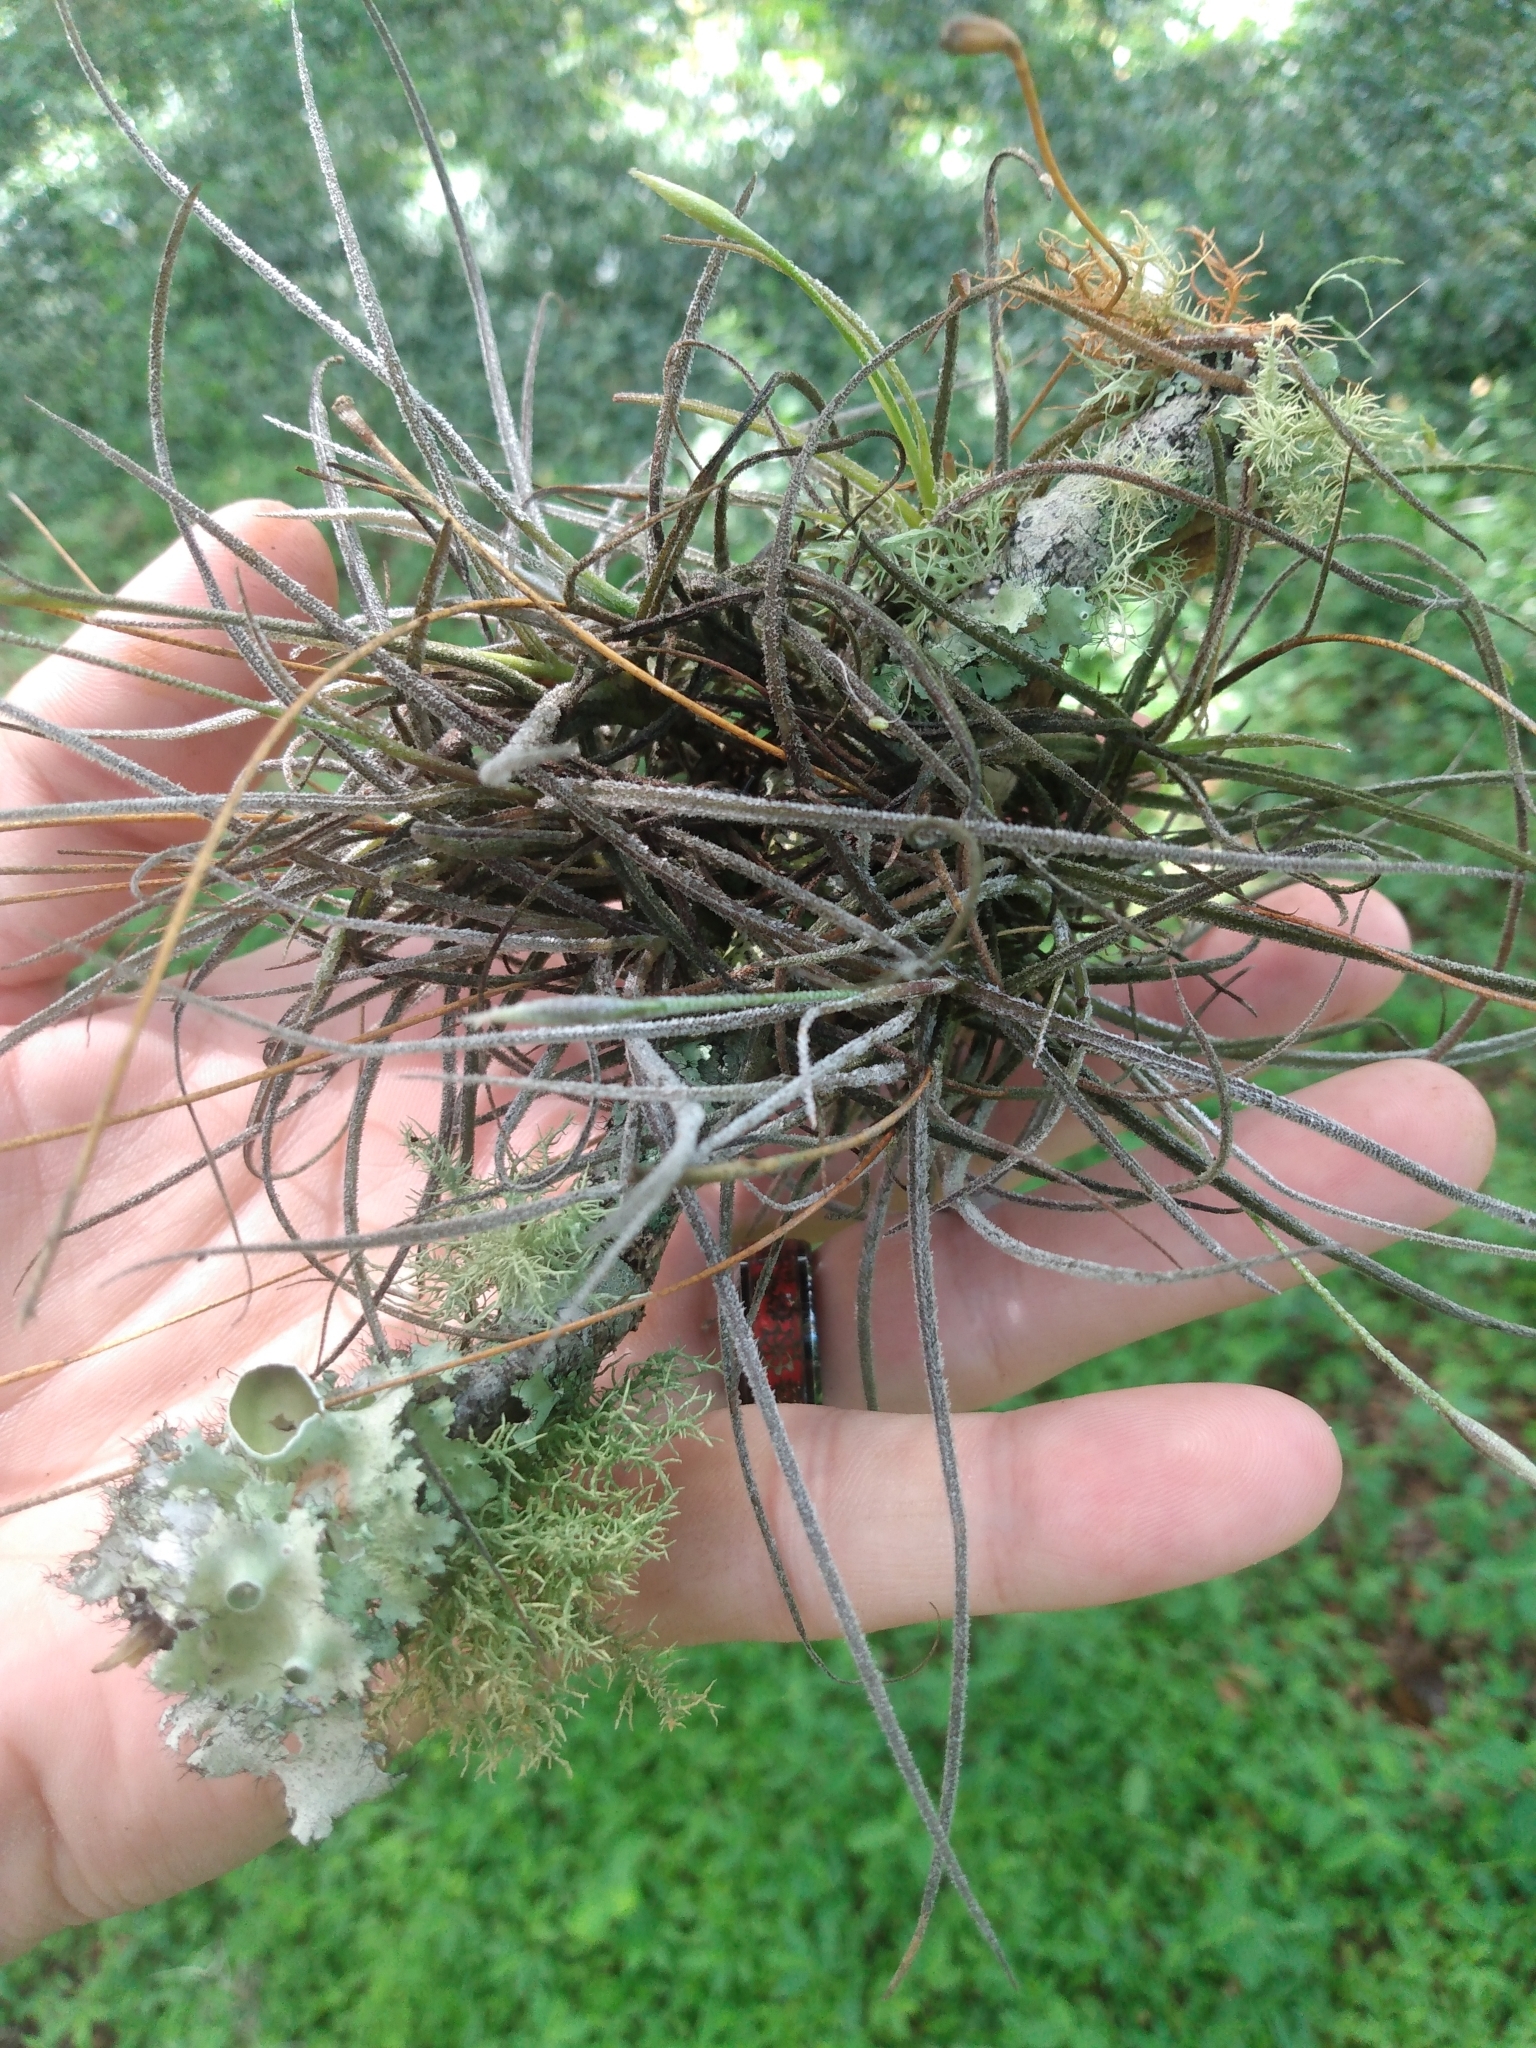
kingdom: Plantae
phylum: Tracheophyta
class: Liliopsida
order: Poales
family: Bromeliaceae
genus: Tillandsia
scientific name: Tillandsia recurvata
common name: Small ballmoss
